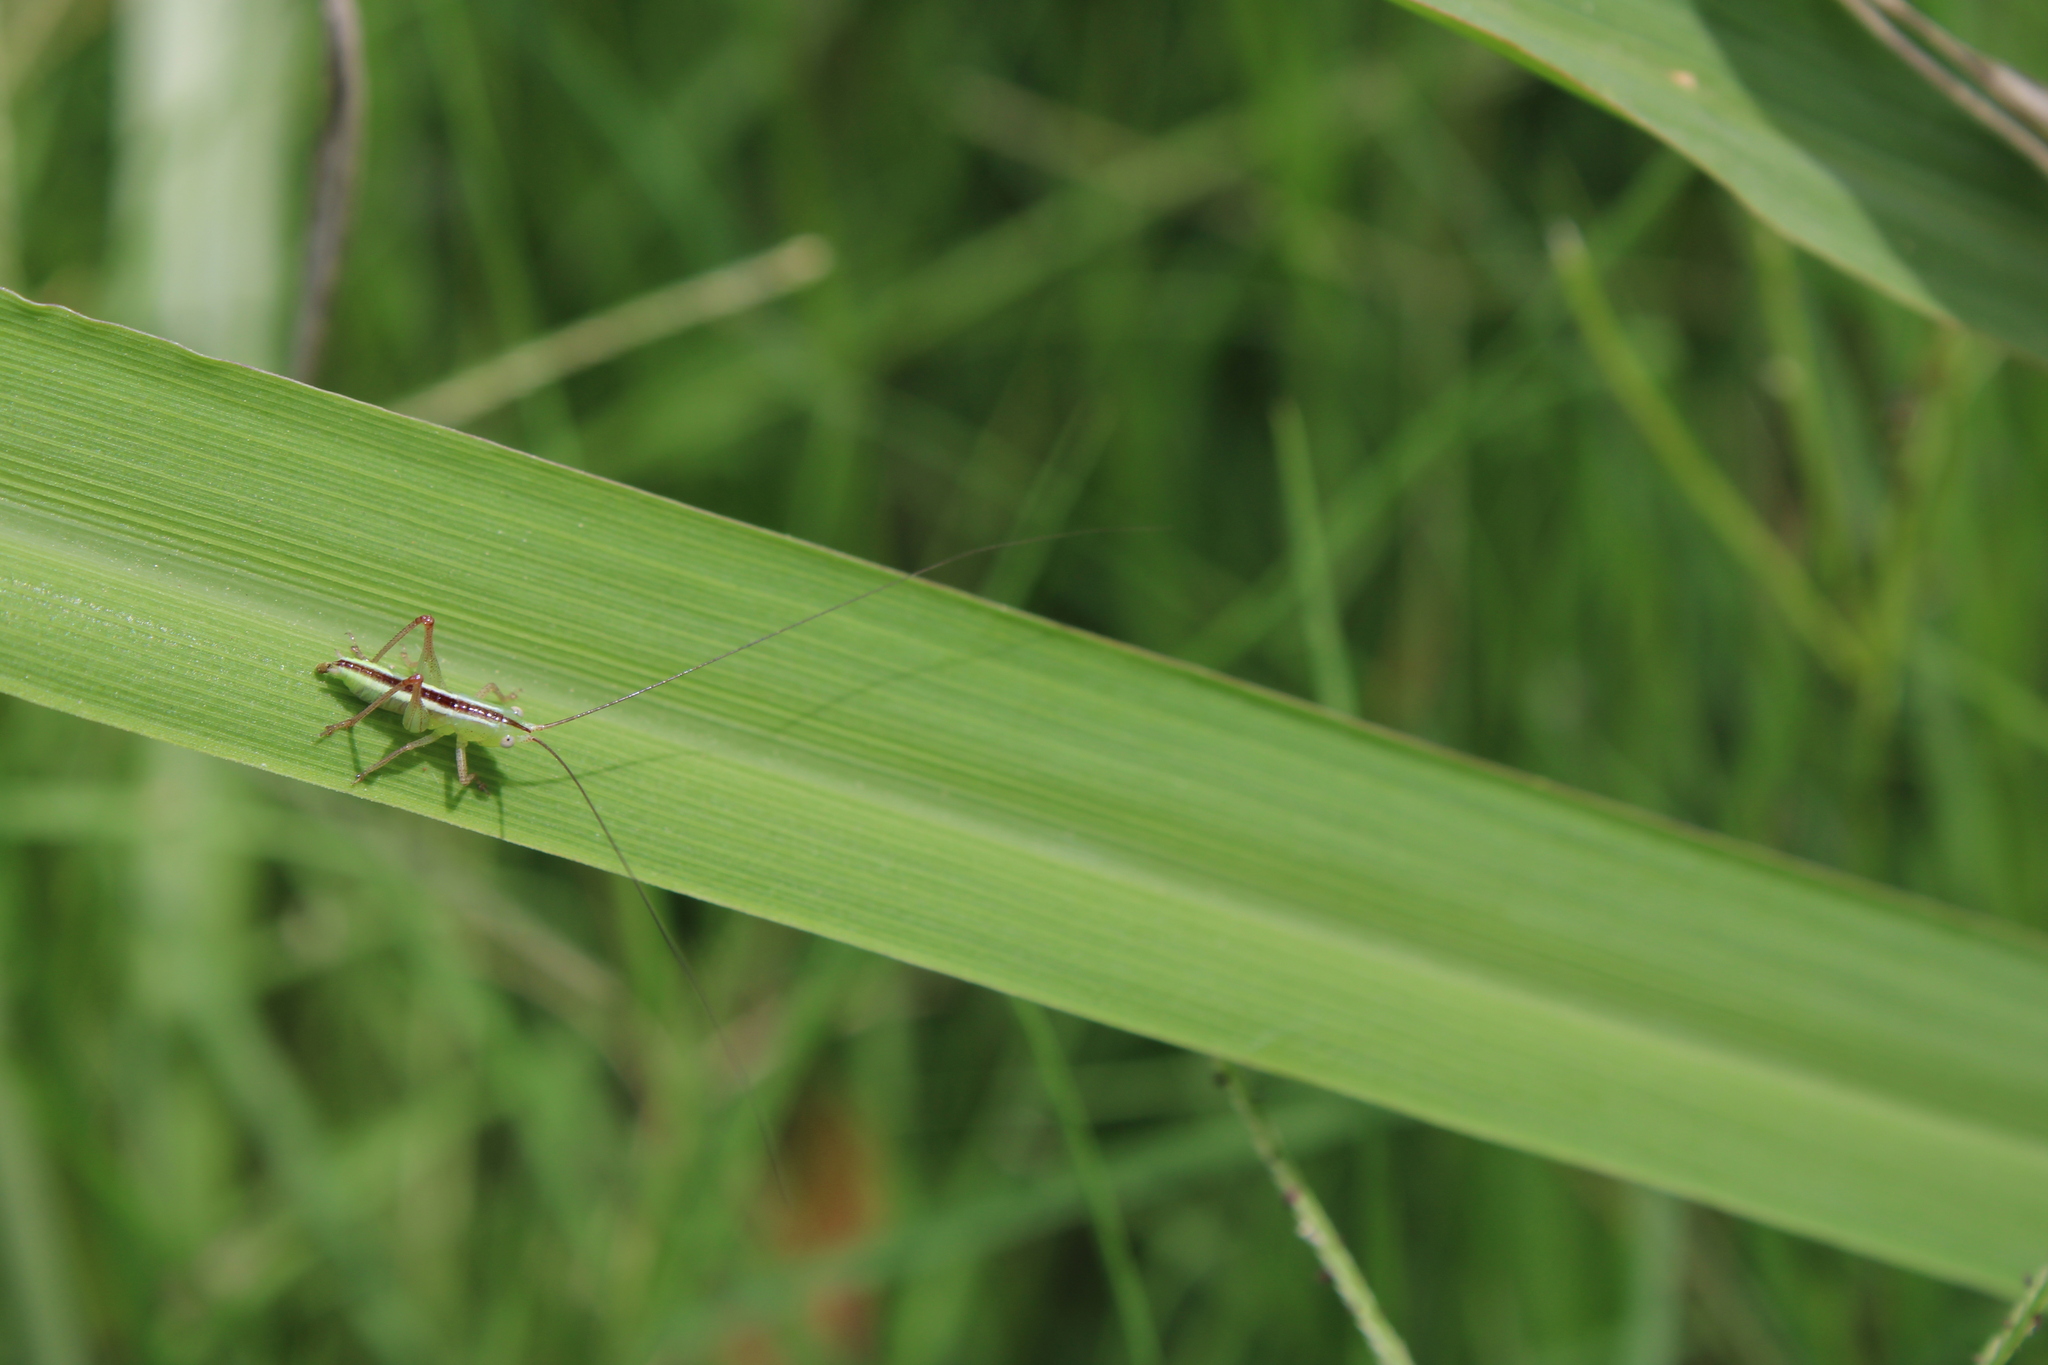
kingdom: Animalia
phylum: Arthropoda
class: Insecta
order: Orthoptera
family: Tettigoniidae
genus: Conocephalus
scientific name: Conocephalus longipes
